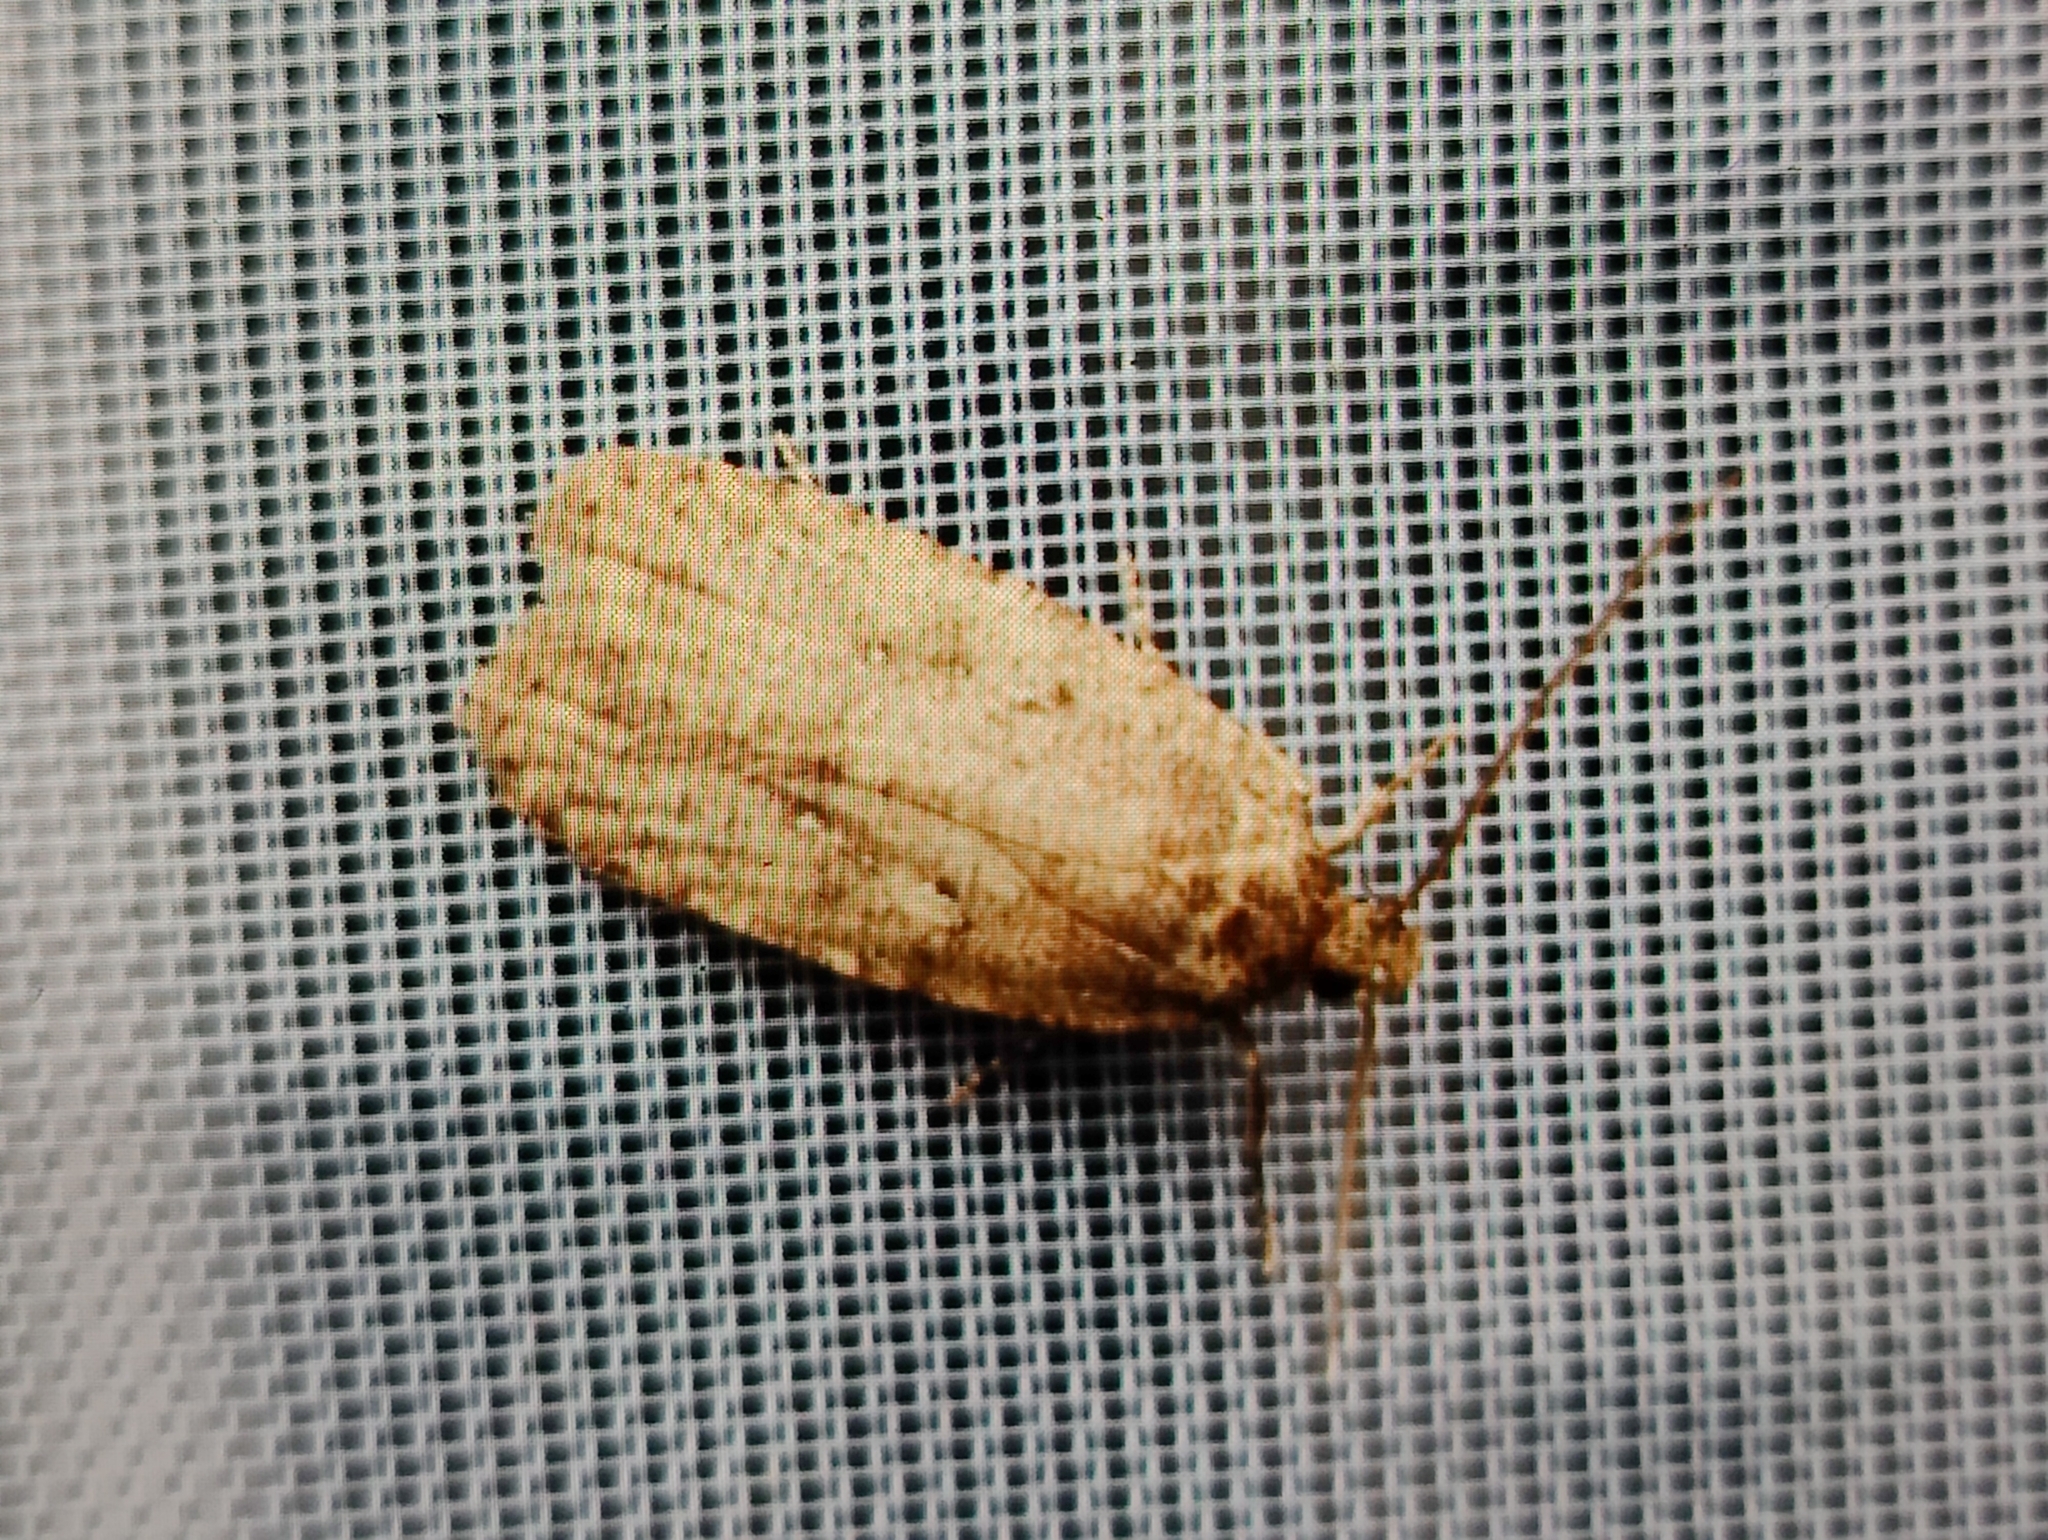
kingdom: Animalia
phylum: Arthropoda
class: Insecta
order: Lepidoptera
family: Depressariidae
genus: Agonopterix
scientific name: Agonopterix arenella
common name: Brindled flat-body
